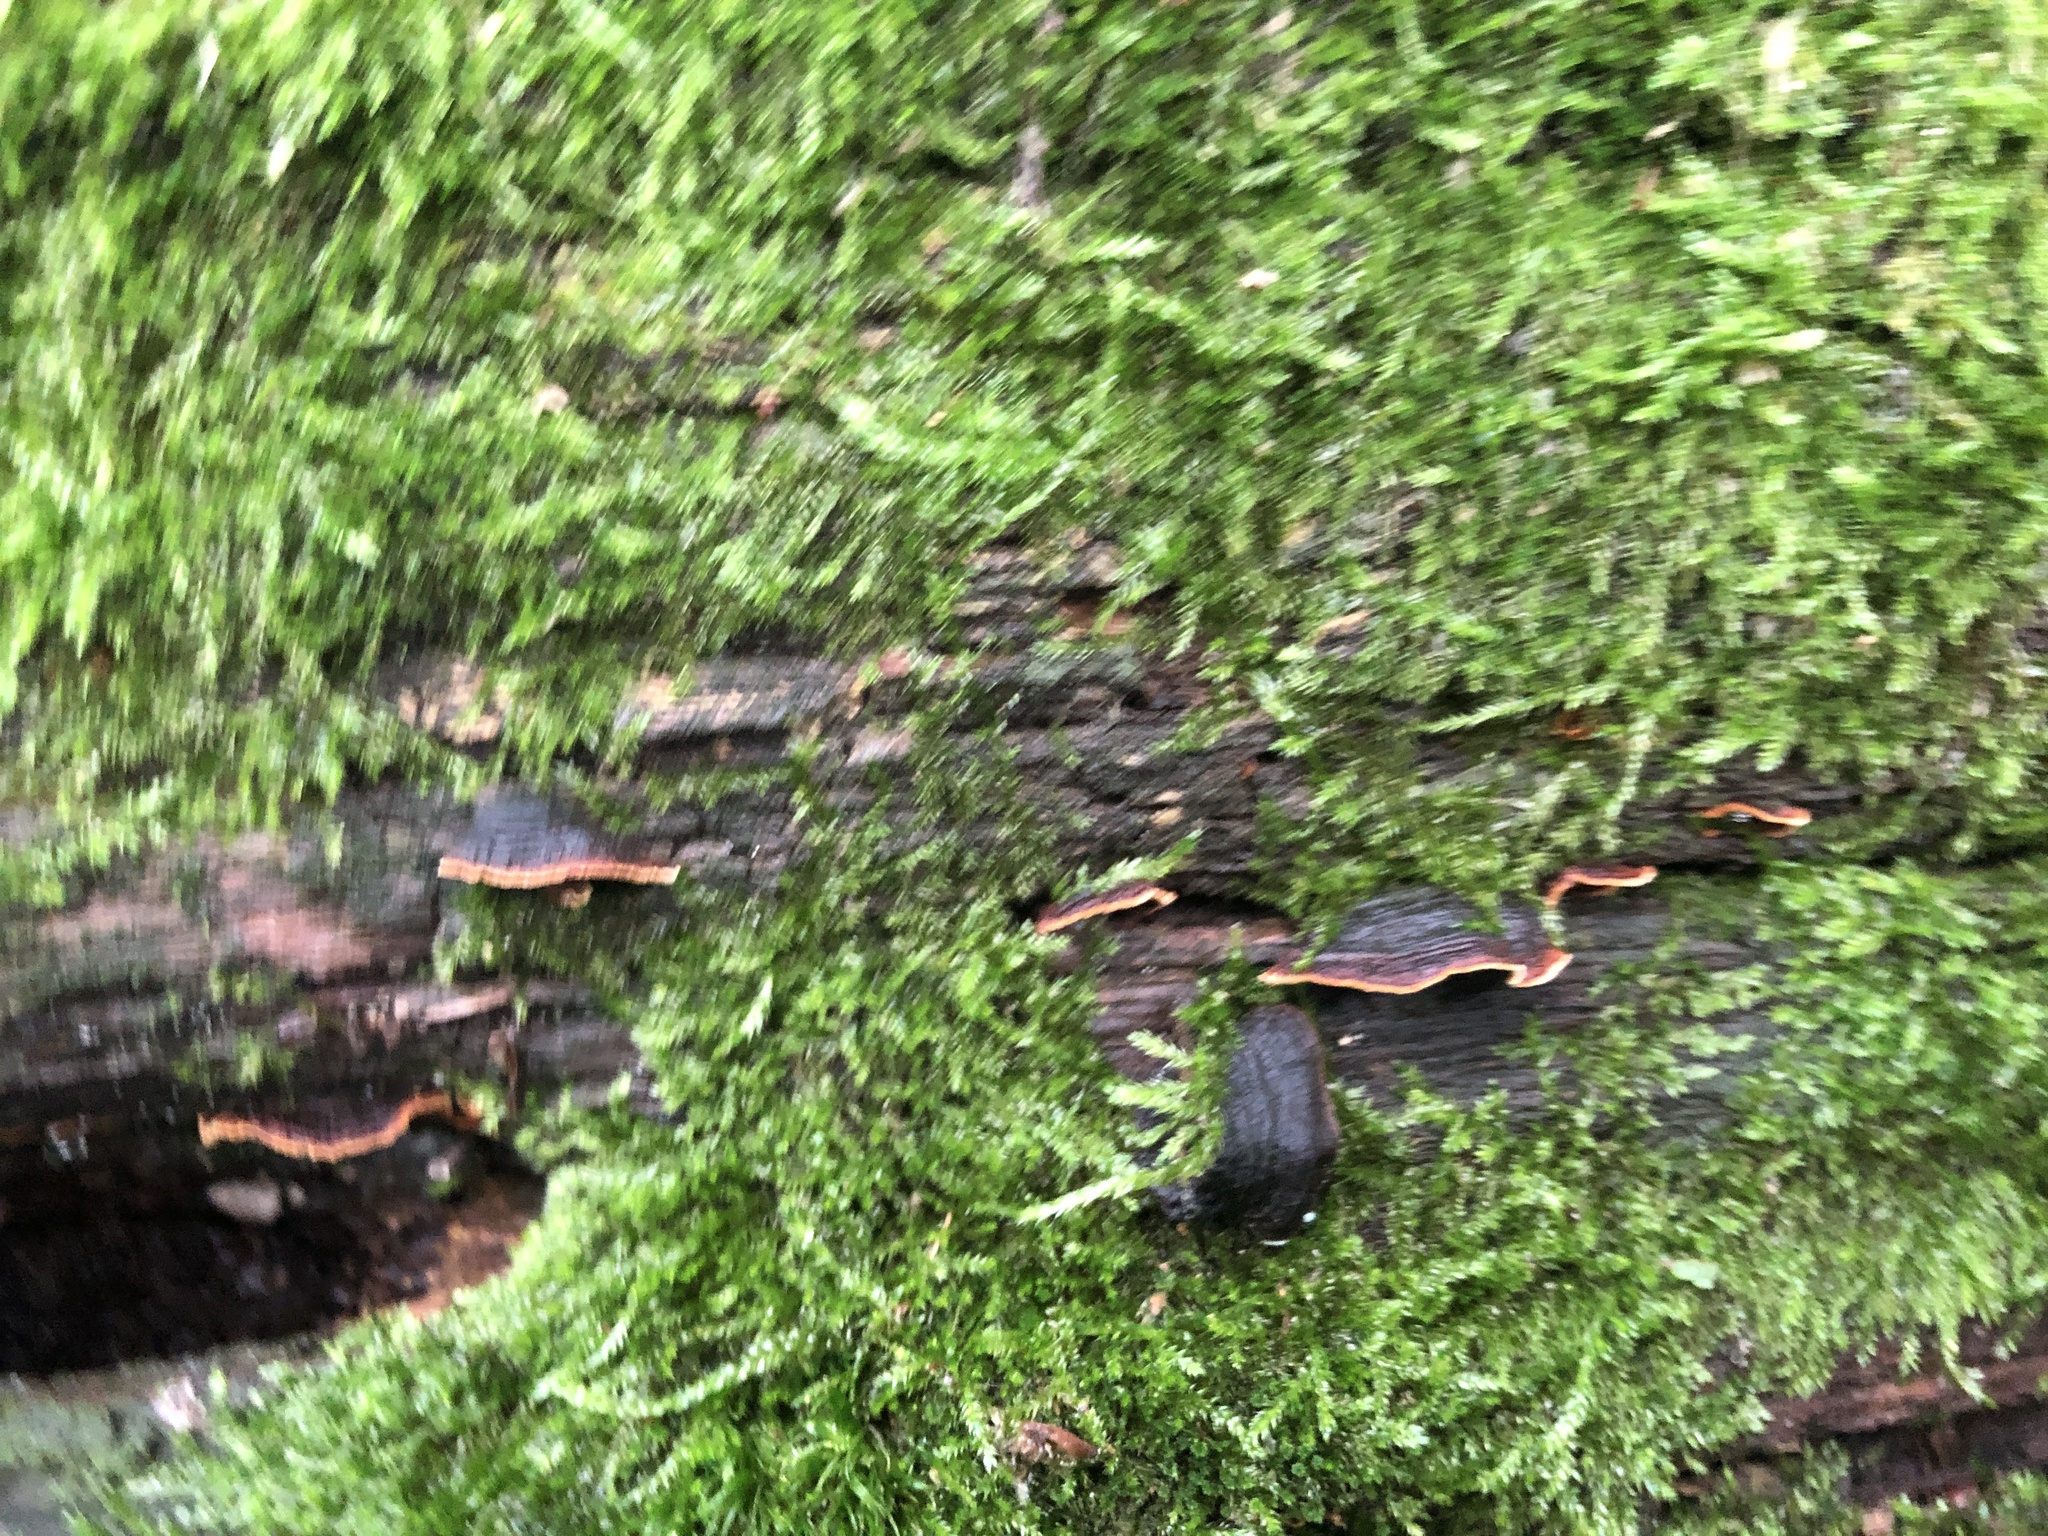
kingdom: Fungi
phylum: Basidiomycota
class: Agaricomycetes
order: Hymenochaetales
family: Hymenochaetaceae
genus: Hymenochaete
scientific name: Hymenochaete rubiginosa
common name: Oak curtain crust
